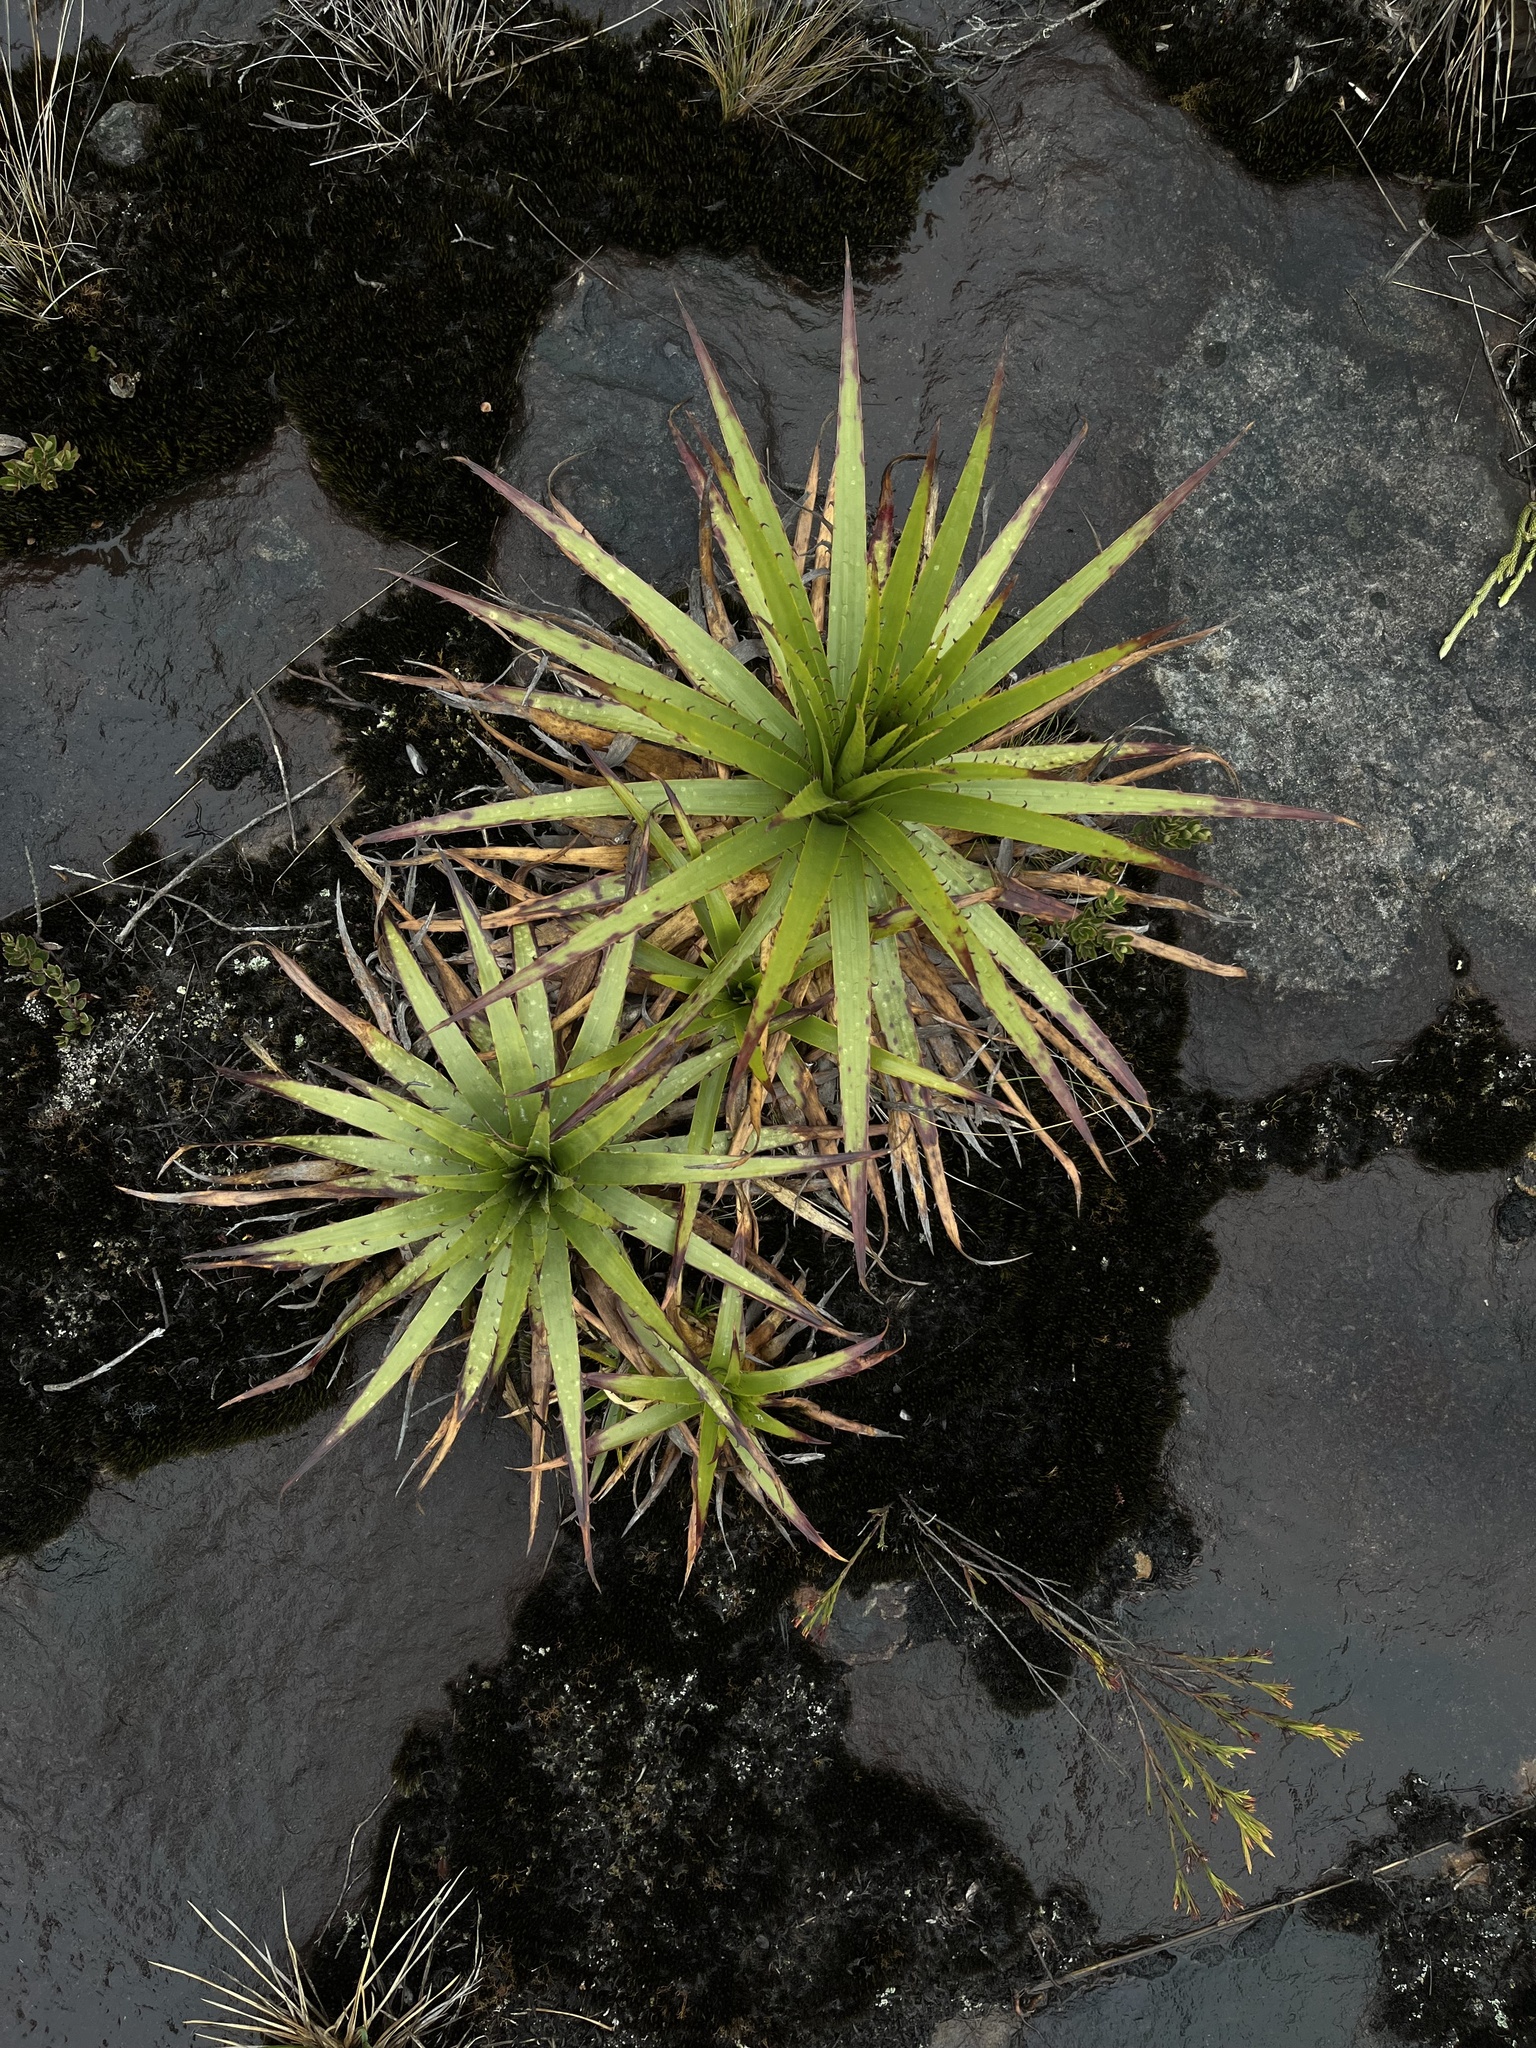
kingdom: Plantae
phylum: Tracheophyta
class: Liliopsida
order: Poales
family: Bromeliaceae
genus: Puya
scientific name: Puya nitida
